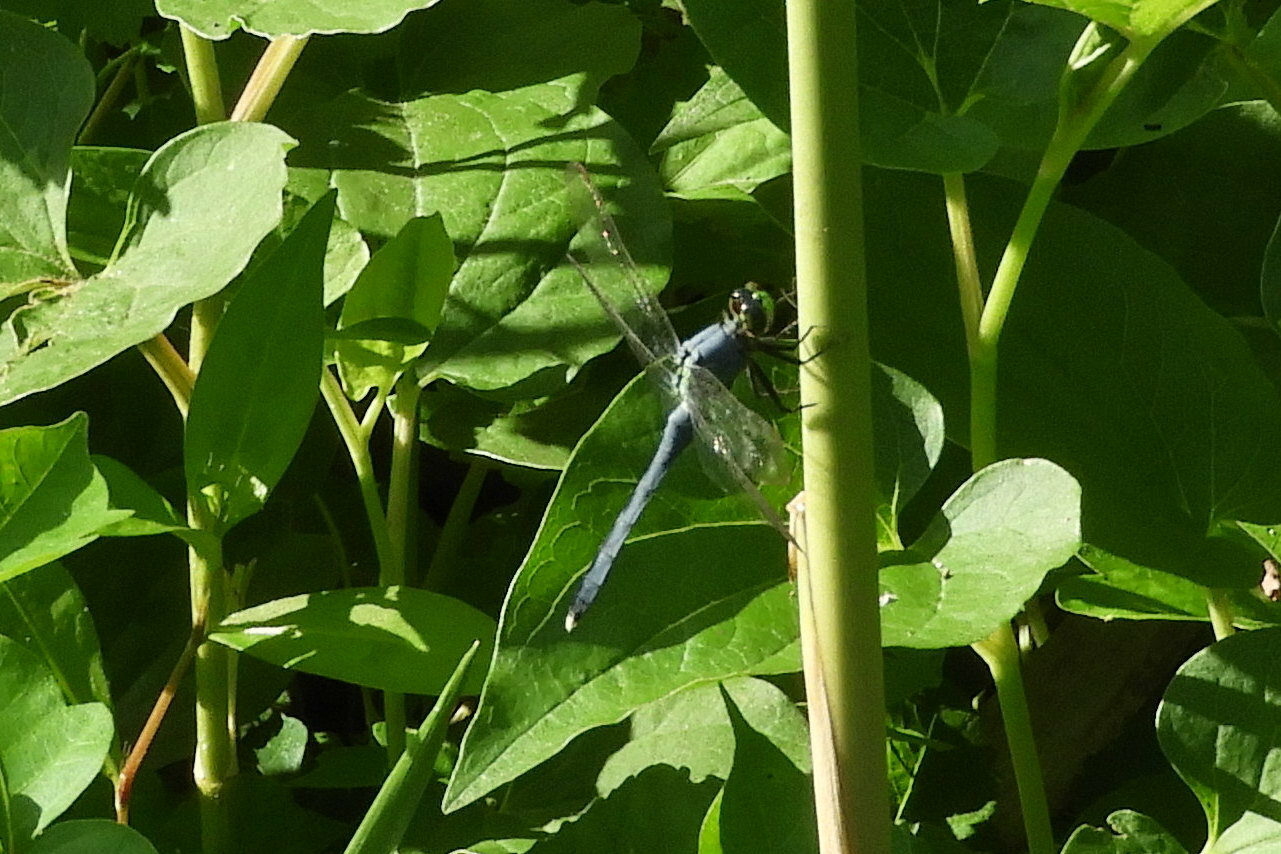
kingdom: Animalia
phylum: Arthropoda
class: Insecta
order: Odonata
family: Libellulidae
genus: Erythemis
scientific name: Erythemis simplicicollis
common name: Eastern pondhawk
